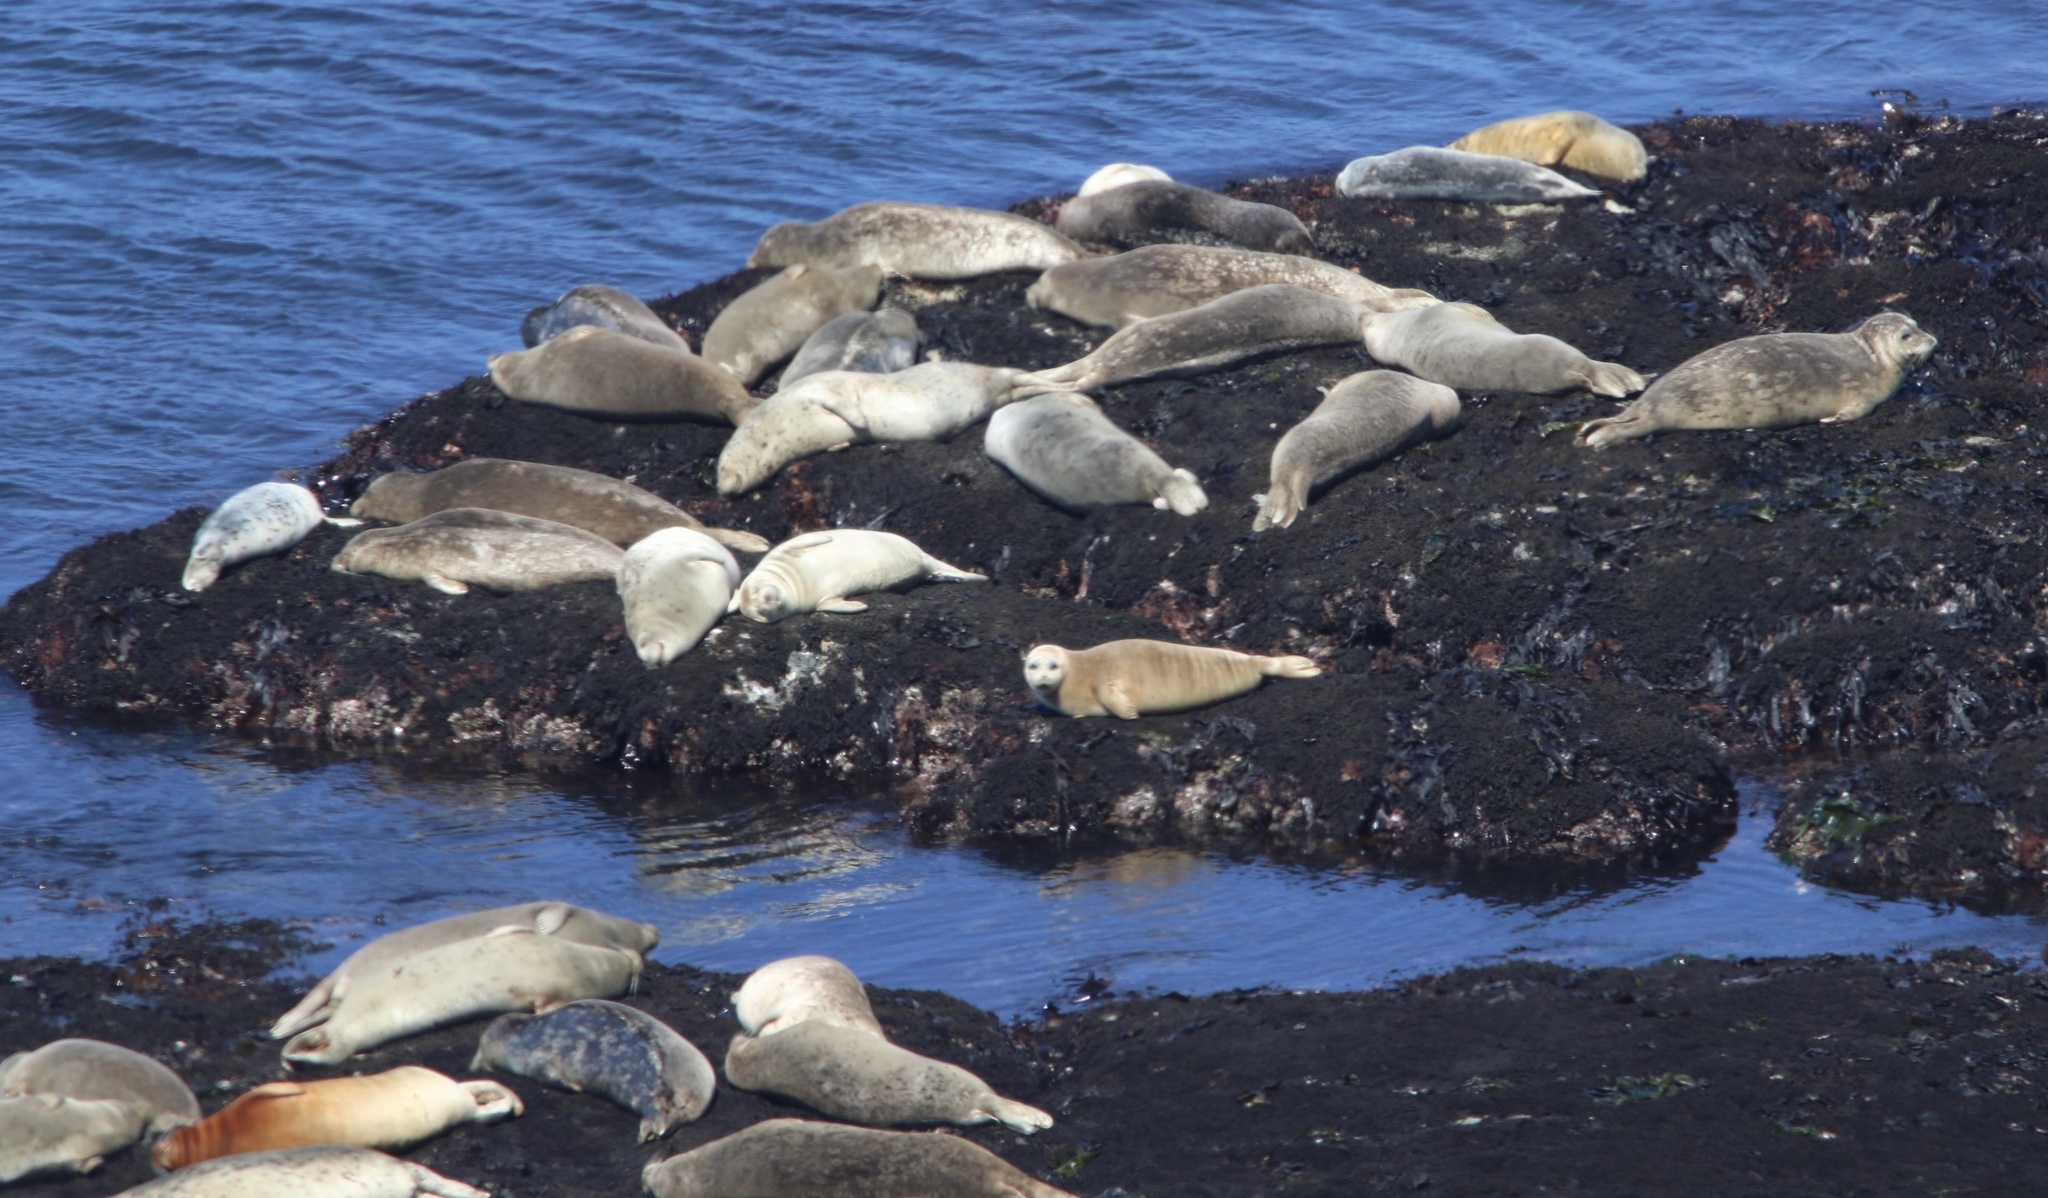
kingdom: Animalia
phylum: Chordata
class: Mammalia
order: Carnivora
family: Phocidae
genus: Phoca
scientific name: Phoca vitulina
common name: Harbor seal
